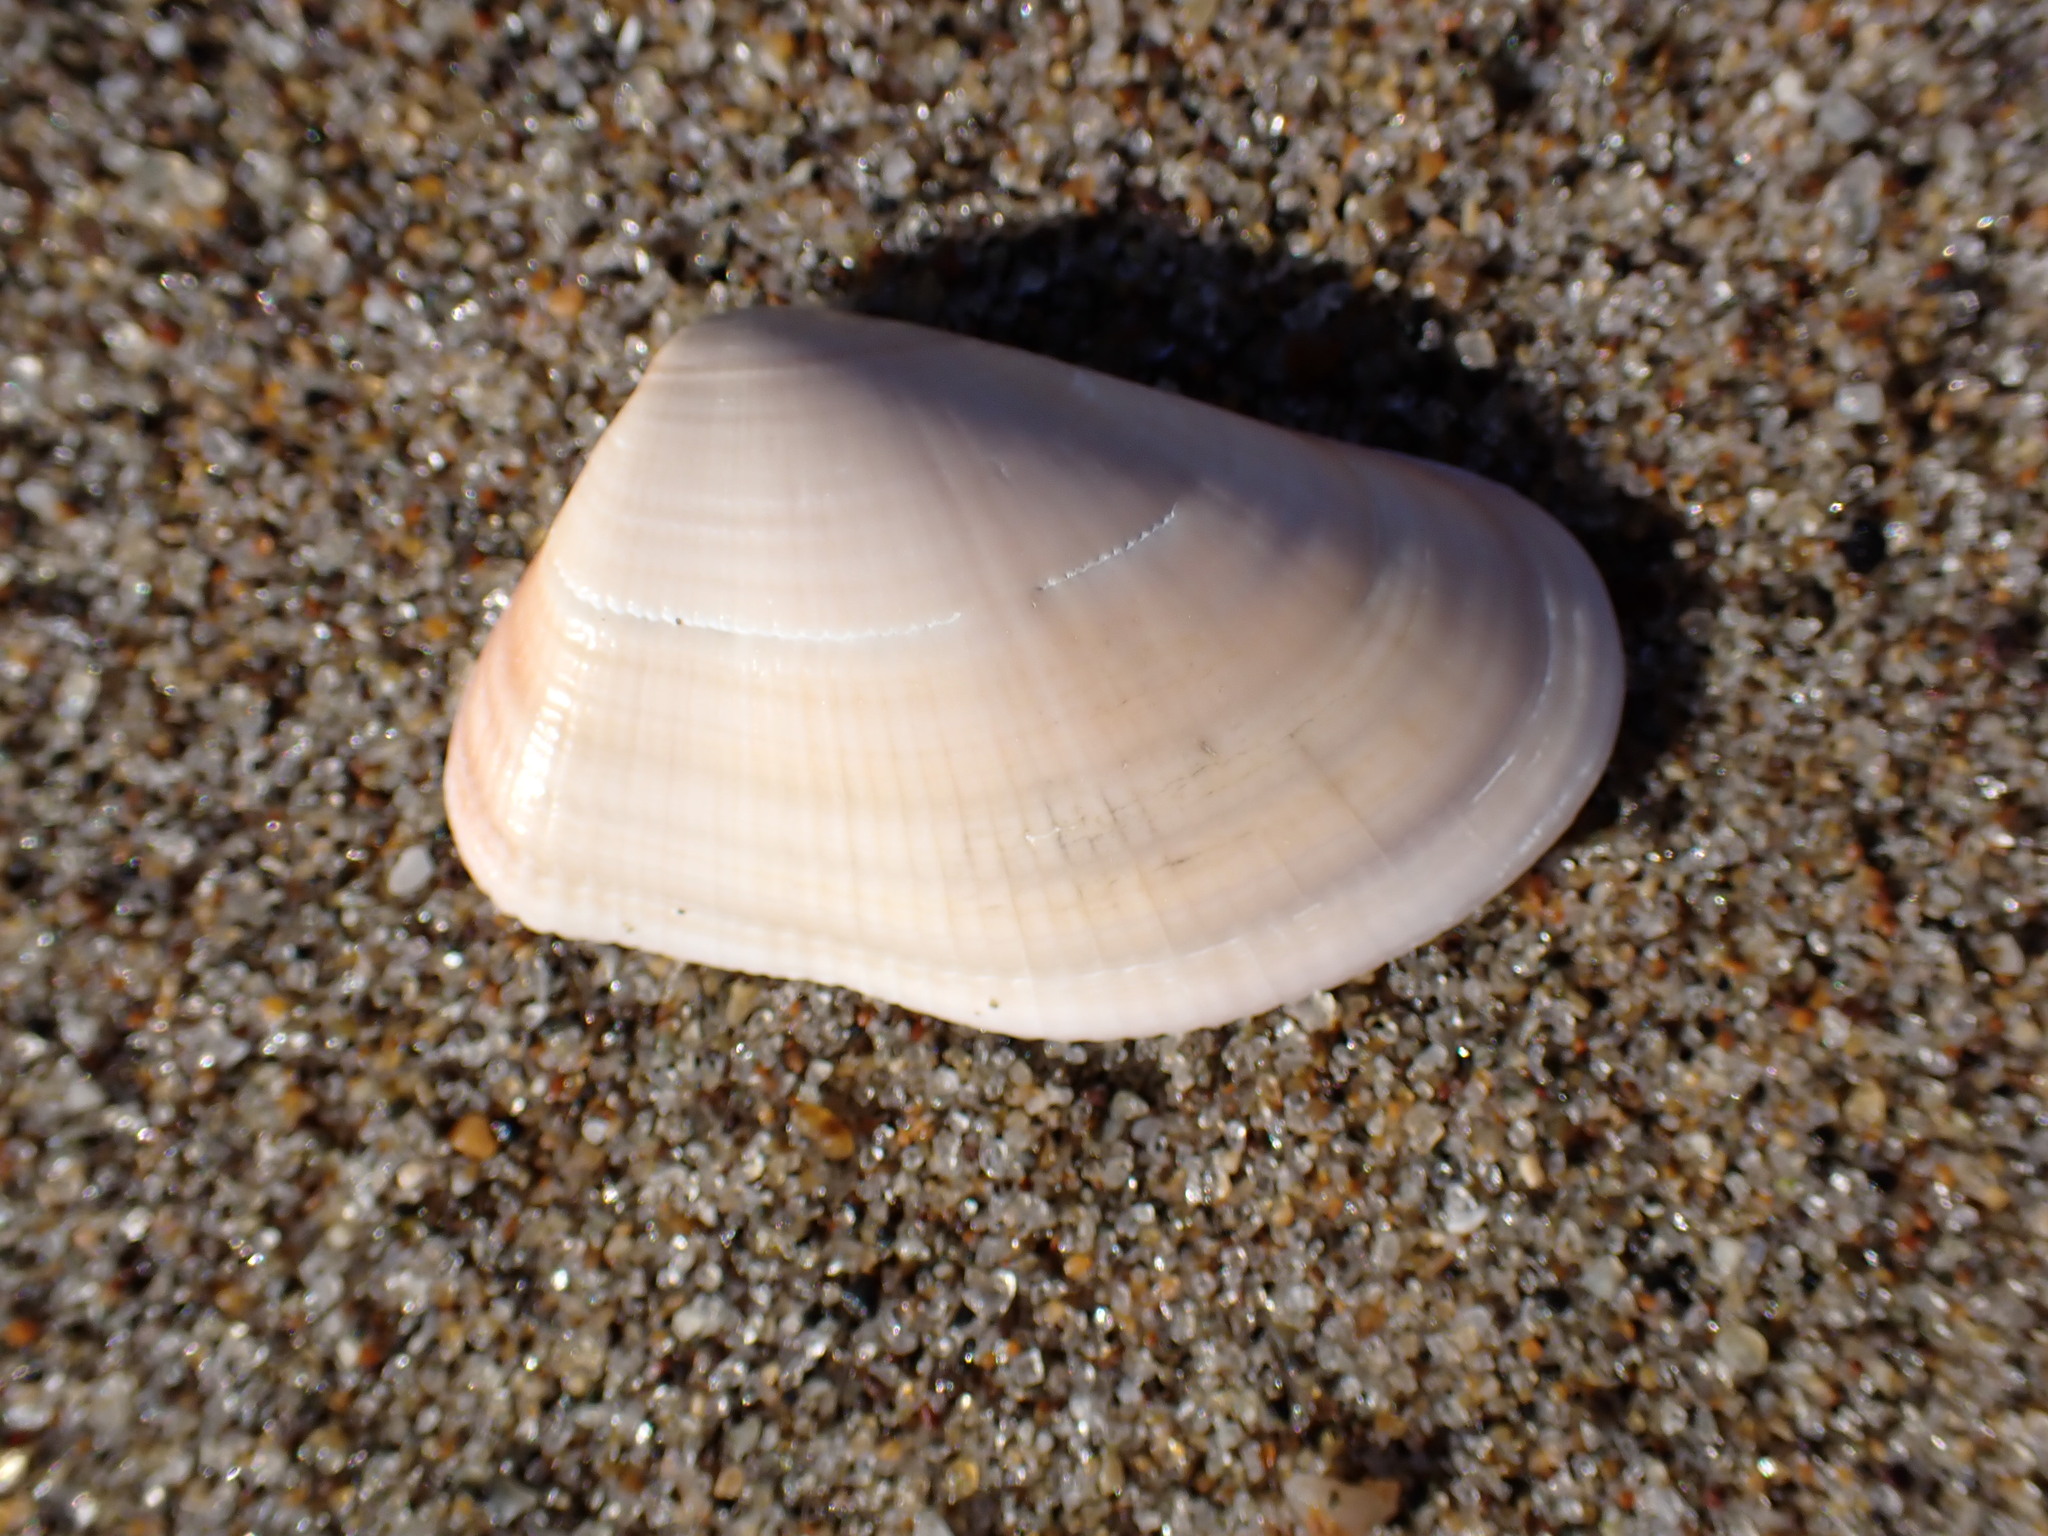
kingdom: Animalia
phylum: Mollusca
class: Bivalvia
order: Cardiida
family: Donacidae
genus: Donax
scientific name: Donax gouldii
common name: Gould beanclam
